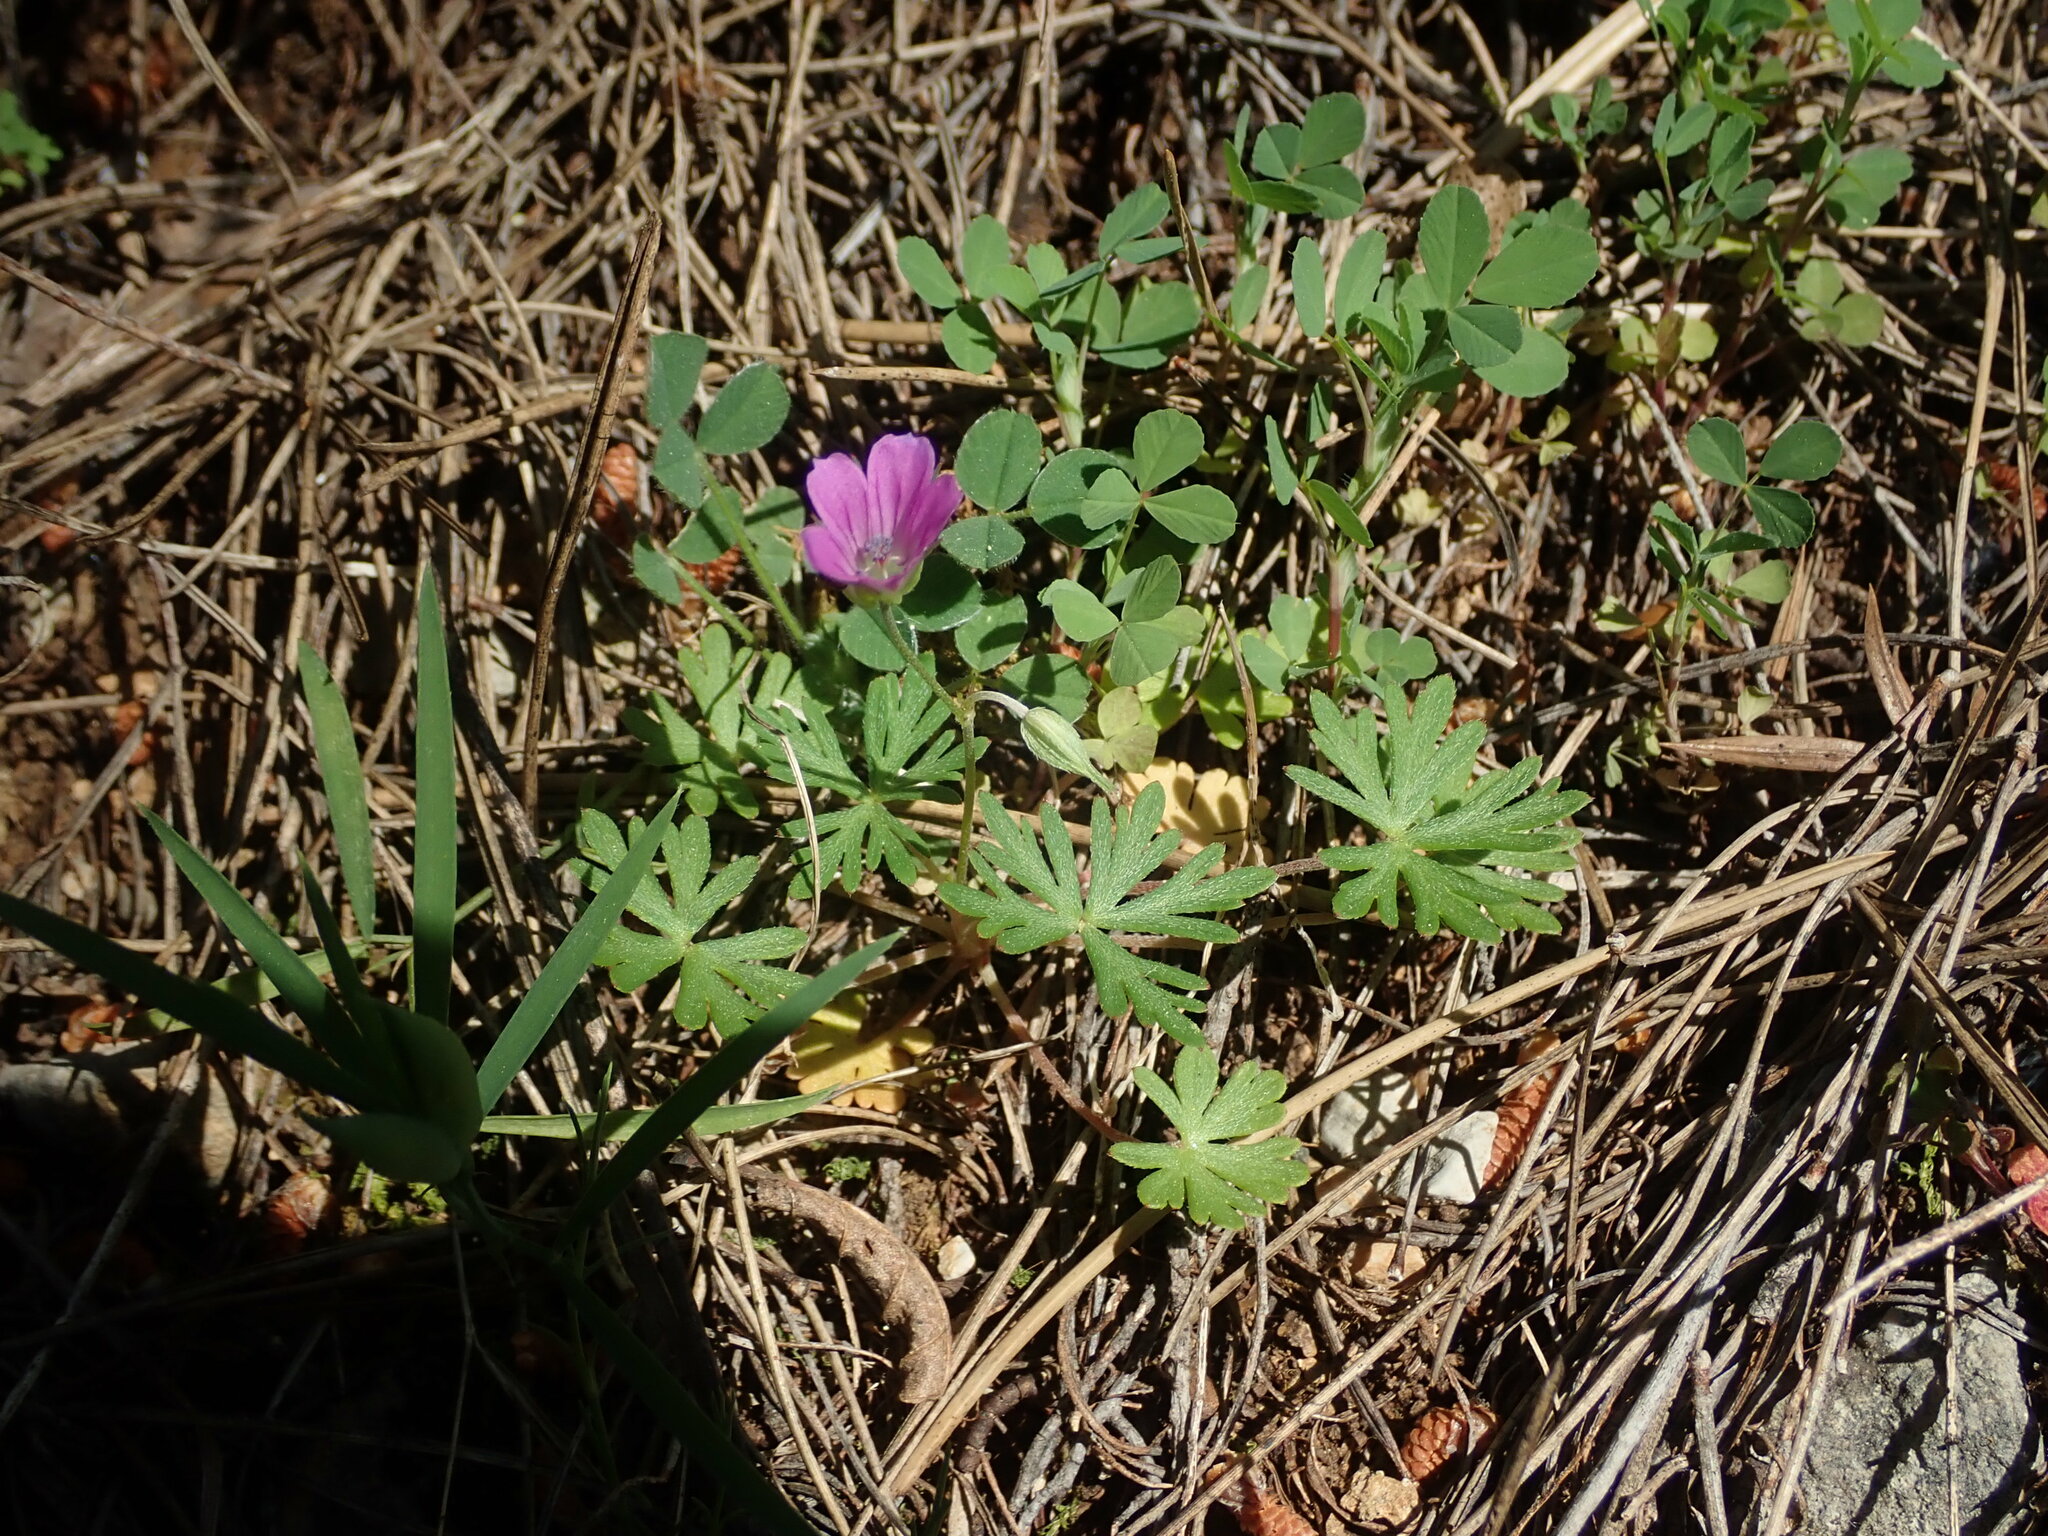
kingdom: Plantae
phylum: Tracheophyta
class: Magnoliopsida
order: Geraniales
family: Geraniaceae
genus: Geranium
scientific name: Geranium columbinum
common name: Long-stalked crane's-bill
